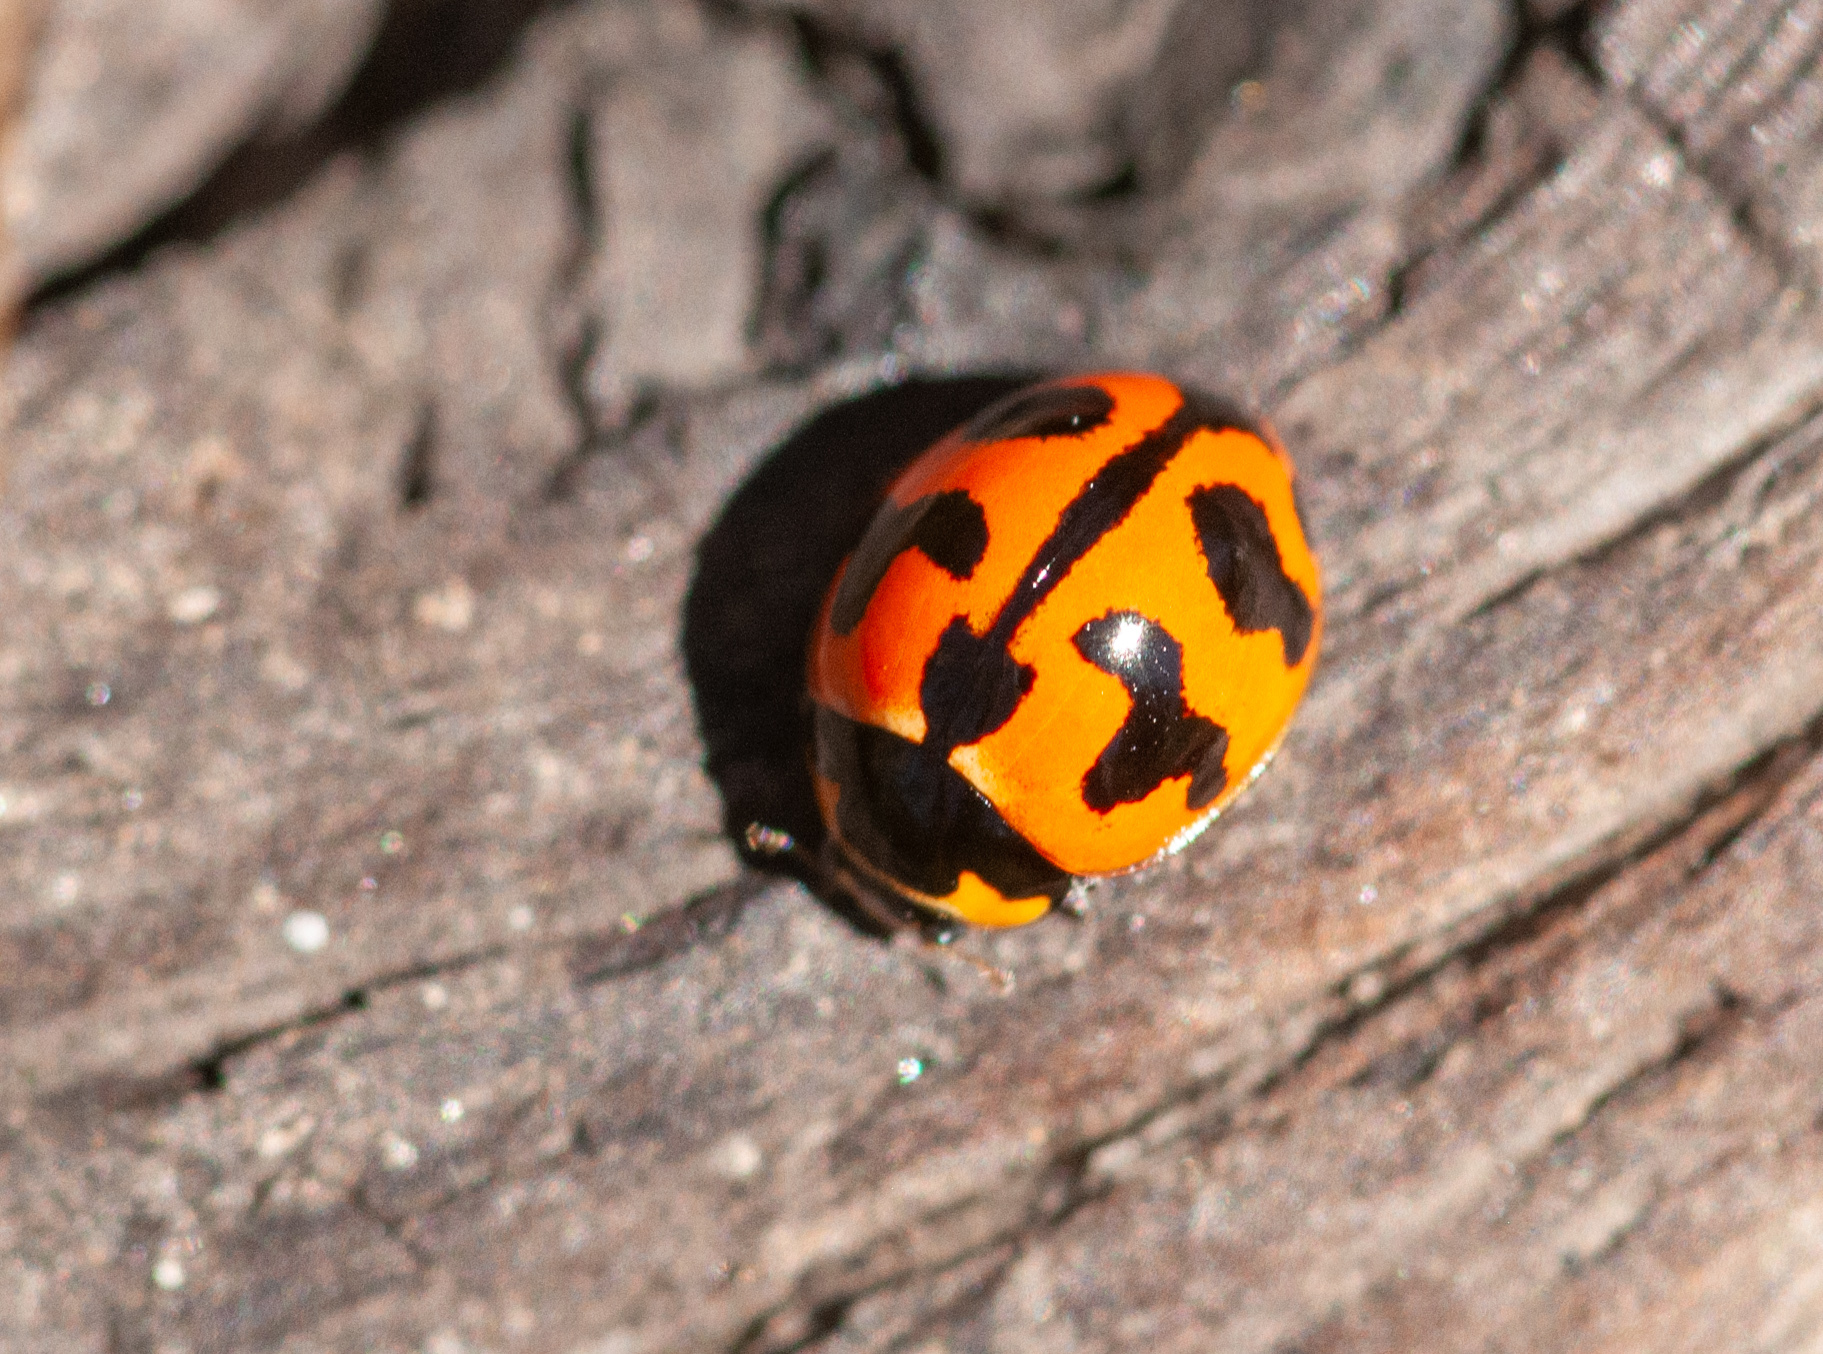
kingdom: Animalia
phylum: Arthropoda
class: Insecta
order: Coleoptera
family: Coccinellidae
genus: Coccinella
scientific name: Coccinella transversalis
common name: Transverse lady beetle
